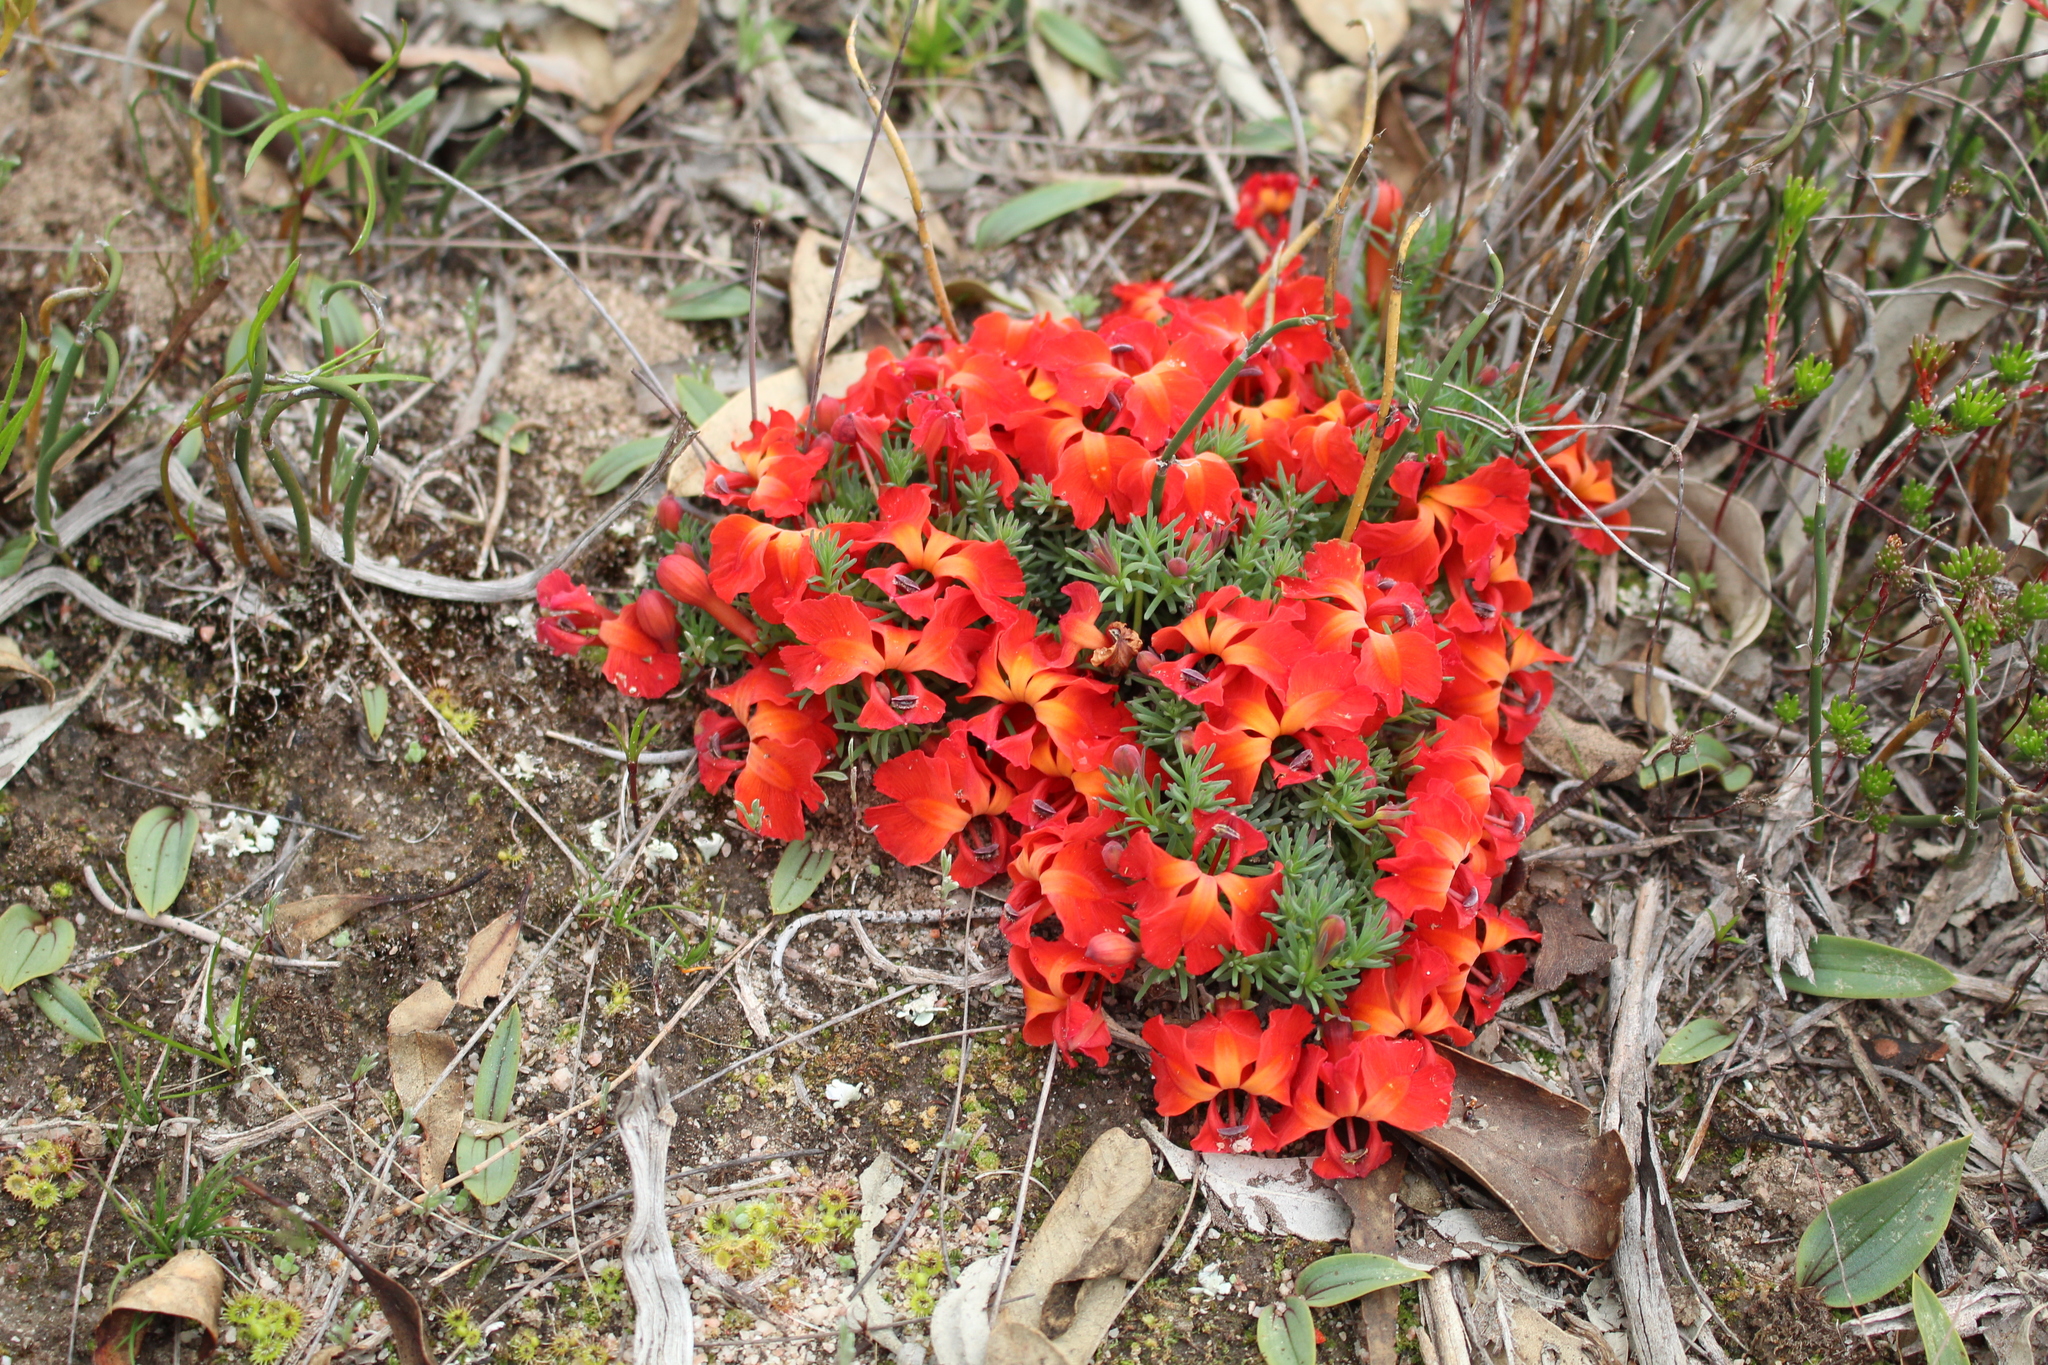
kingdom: Plantae
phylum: Tracheophyta
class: Magnoliopsida
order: Asterales
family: Goodeniaceae
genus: Lechenaultia
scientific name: Lechenaultia formosa
